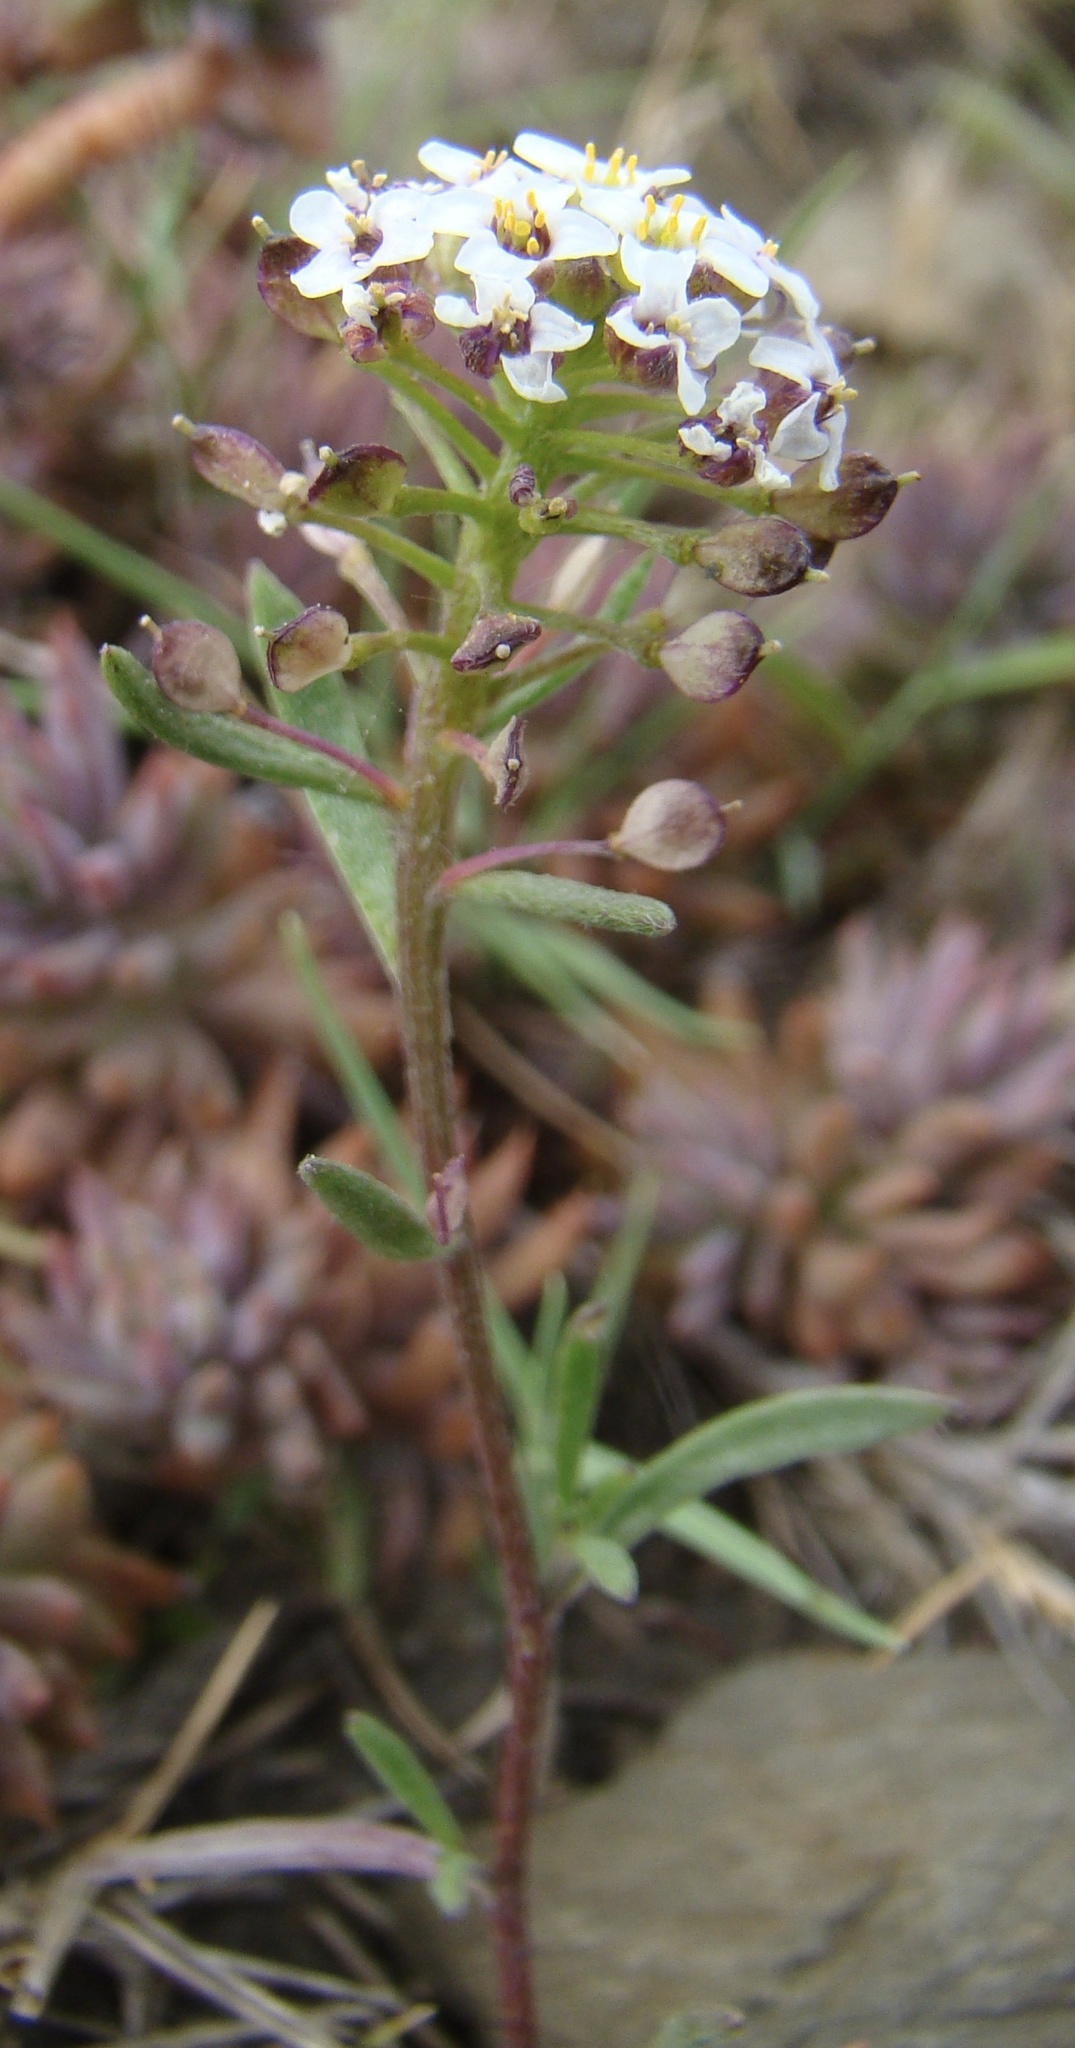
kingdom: Plantae
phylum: Tracheophyta
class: Magnoliopsida
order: Brassicales
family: Brassicaceae
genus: Lobularia
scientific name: Lobularia maritima
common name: Sweet alison
